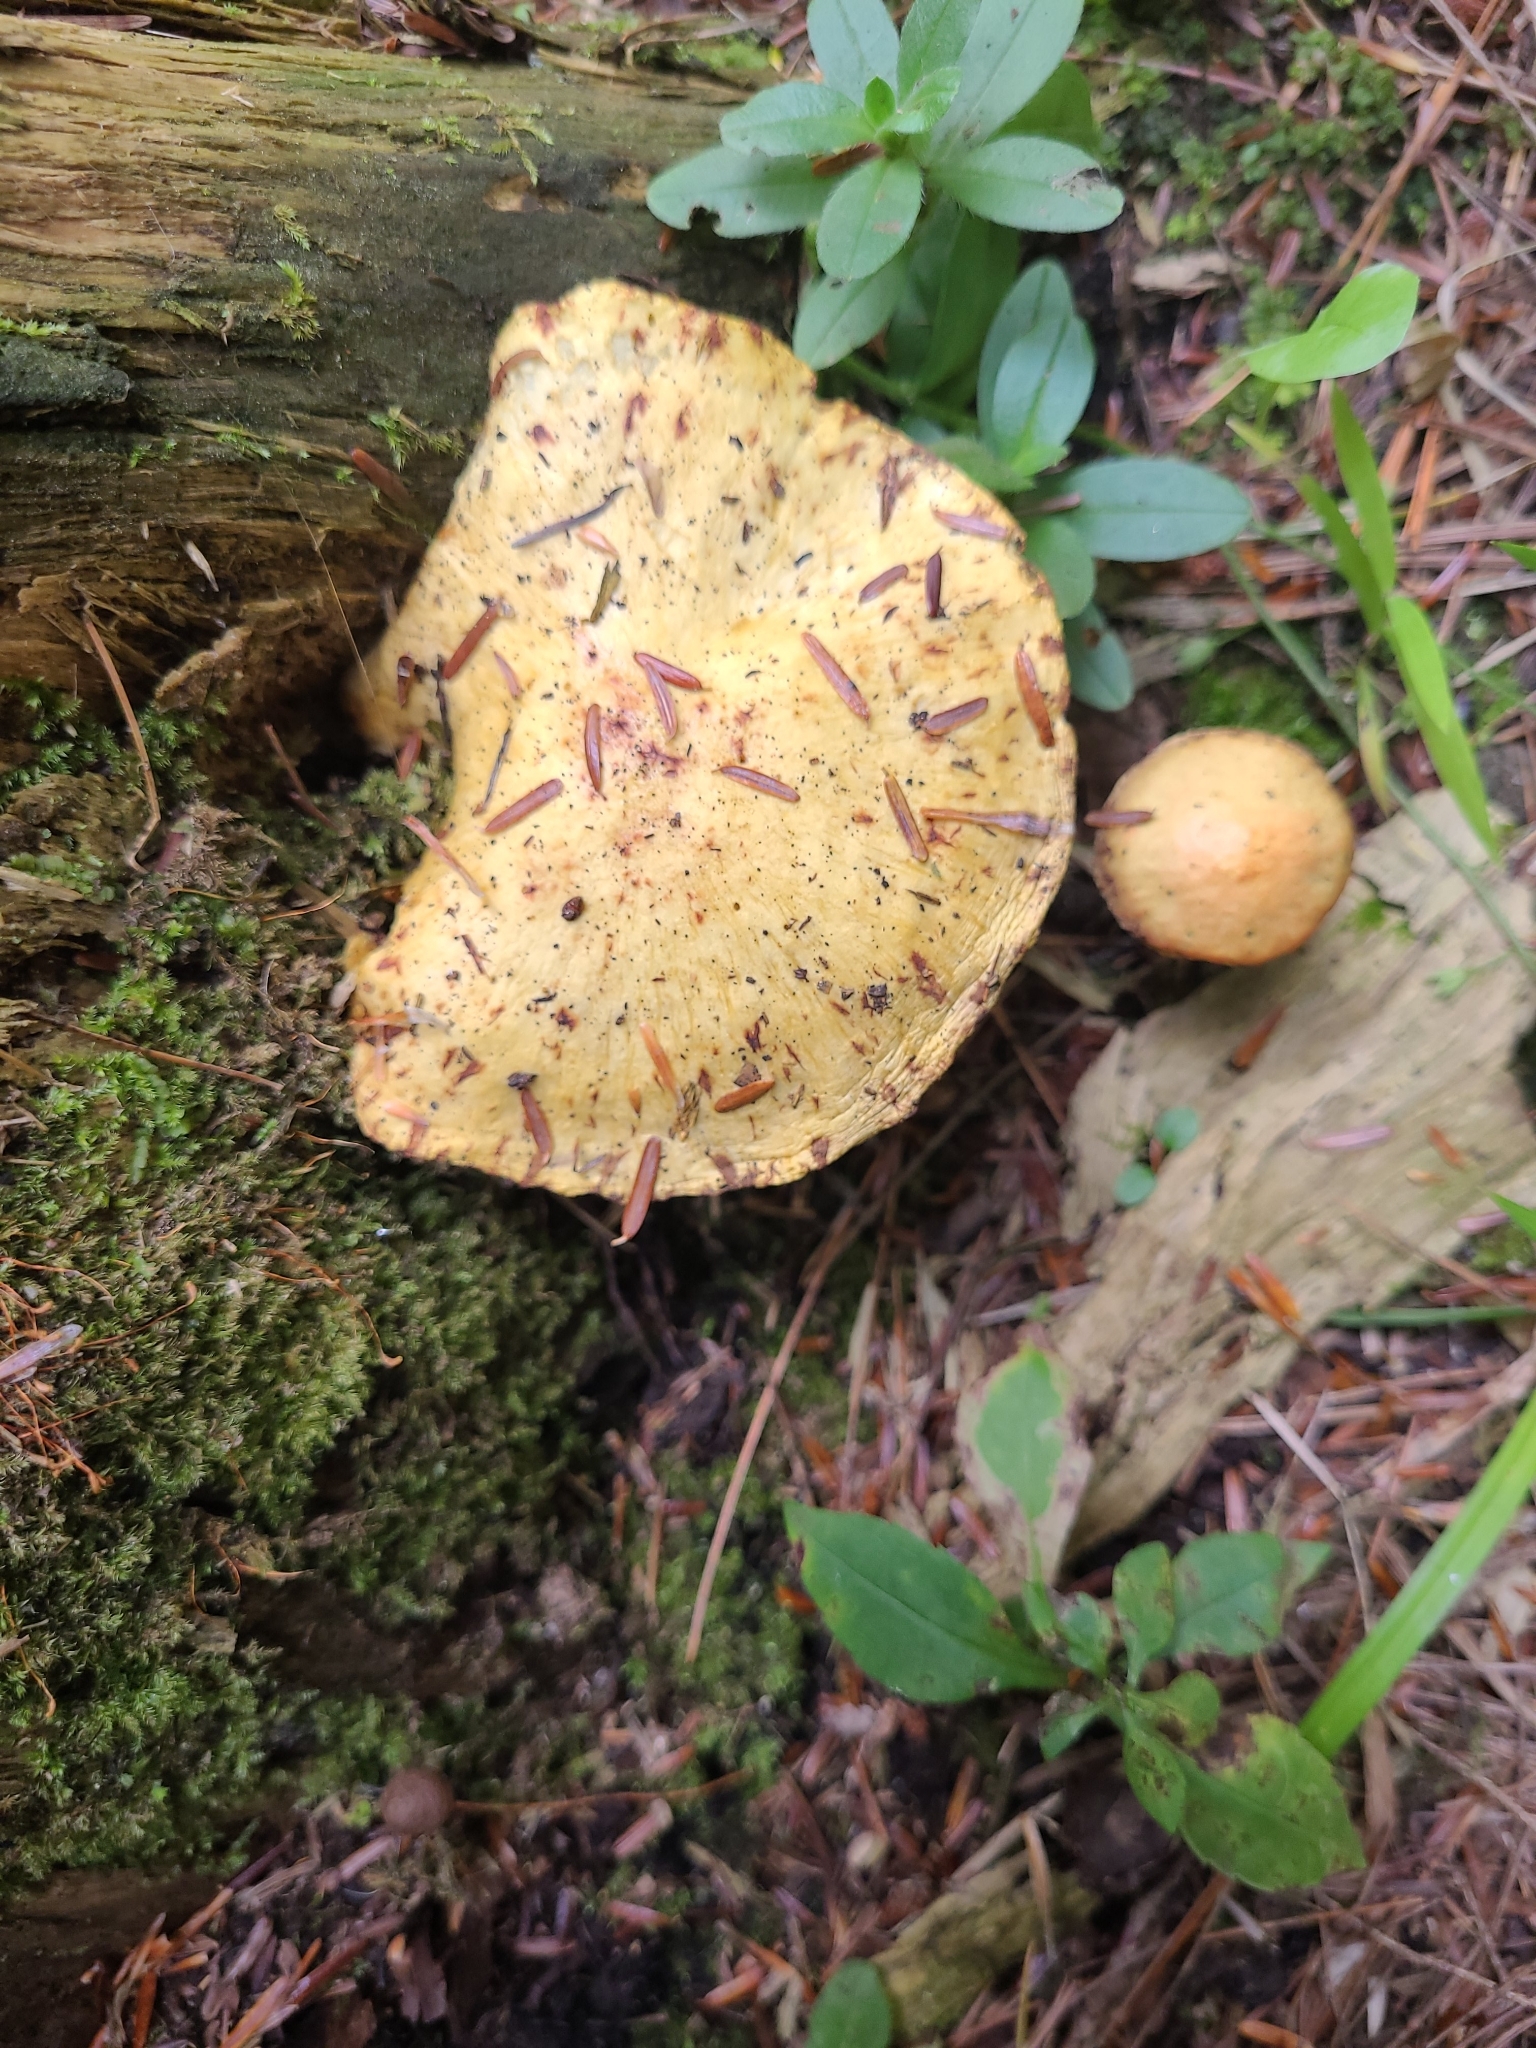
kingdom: Fungi
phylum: Basidiomycota
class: Agaricomycetes
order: Boletales
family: Suillaceae
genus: Suillus
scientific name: Suillus americanus
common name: Chicken fat mushroom
